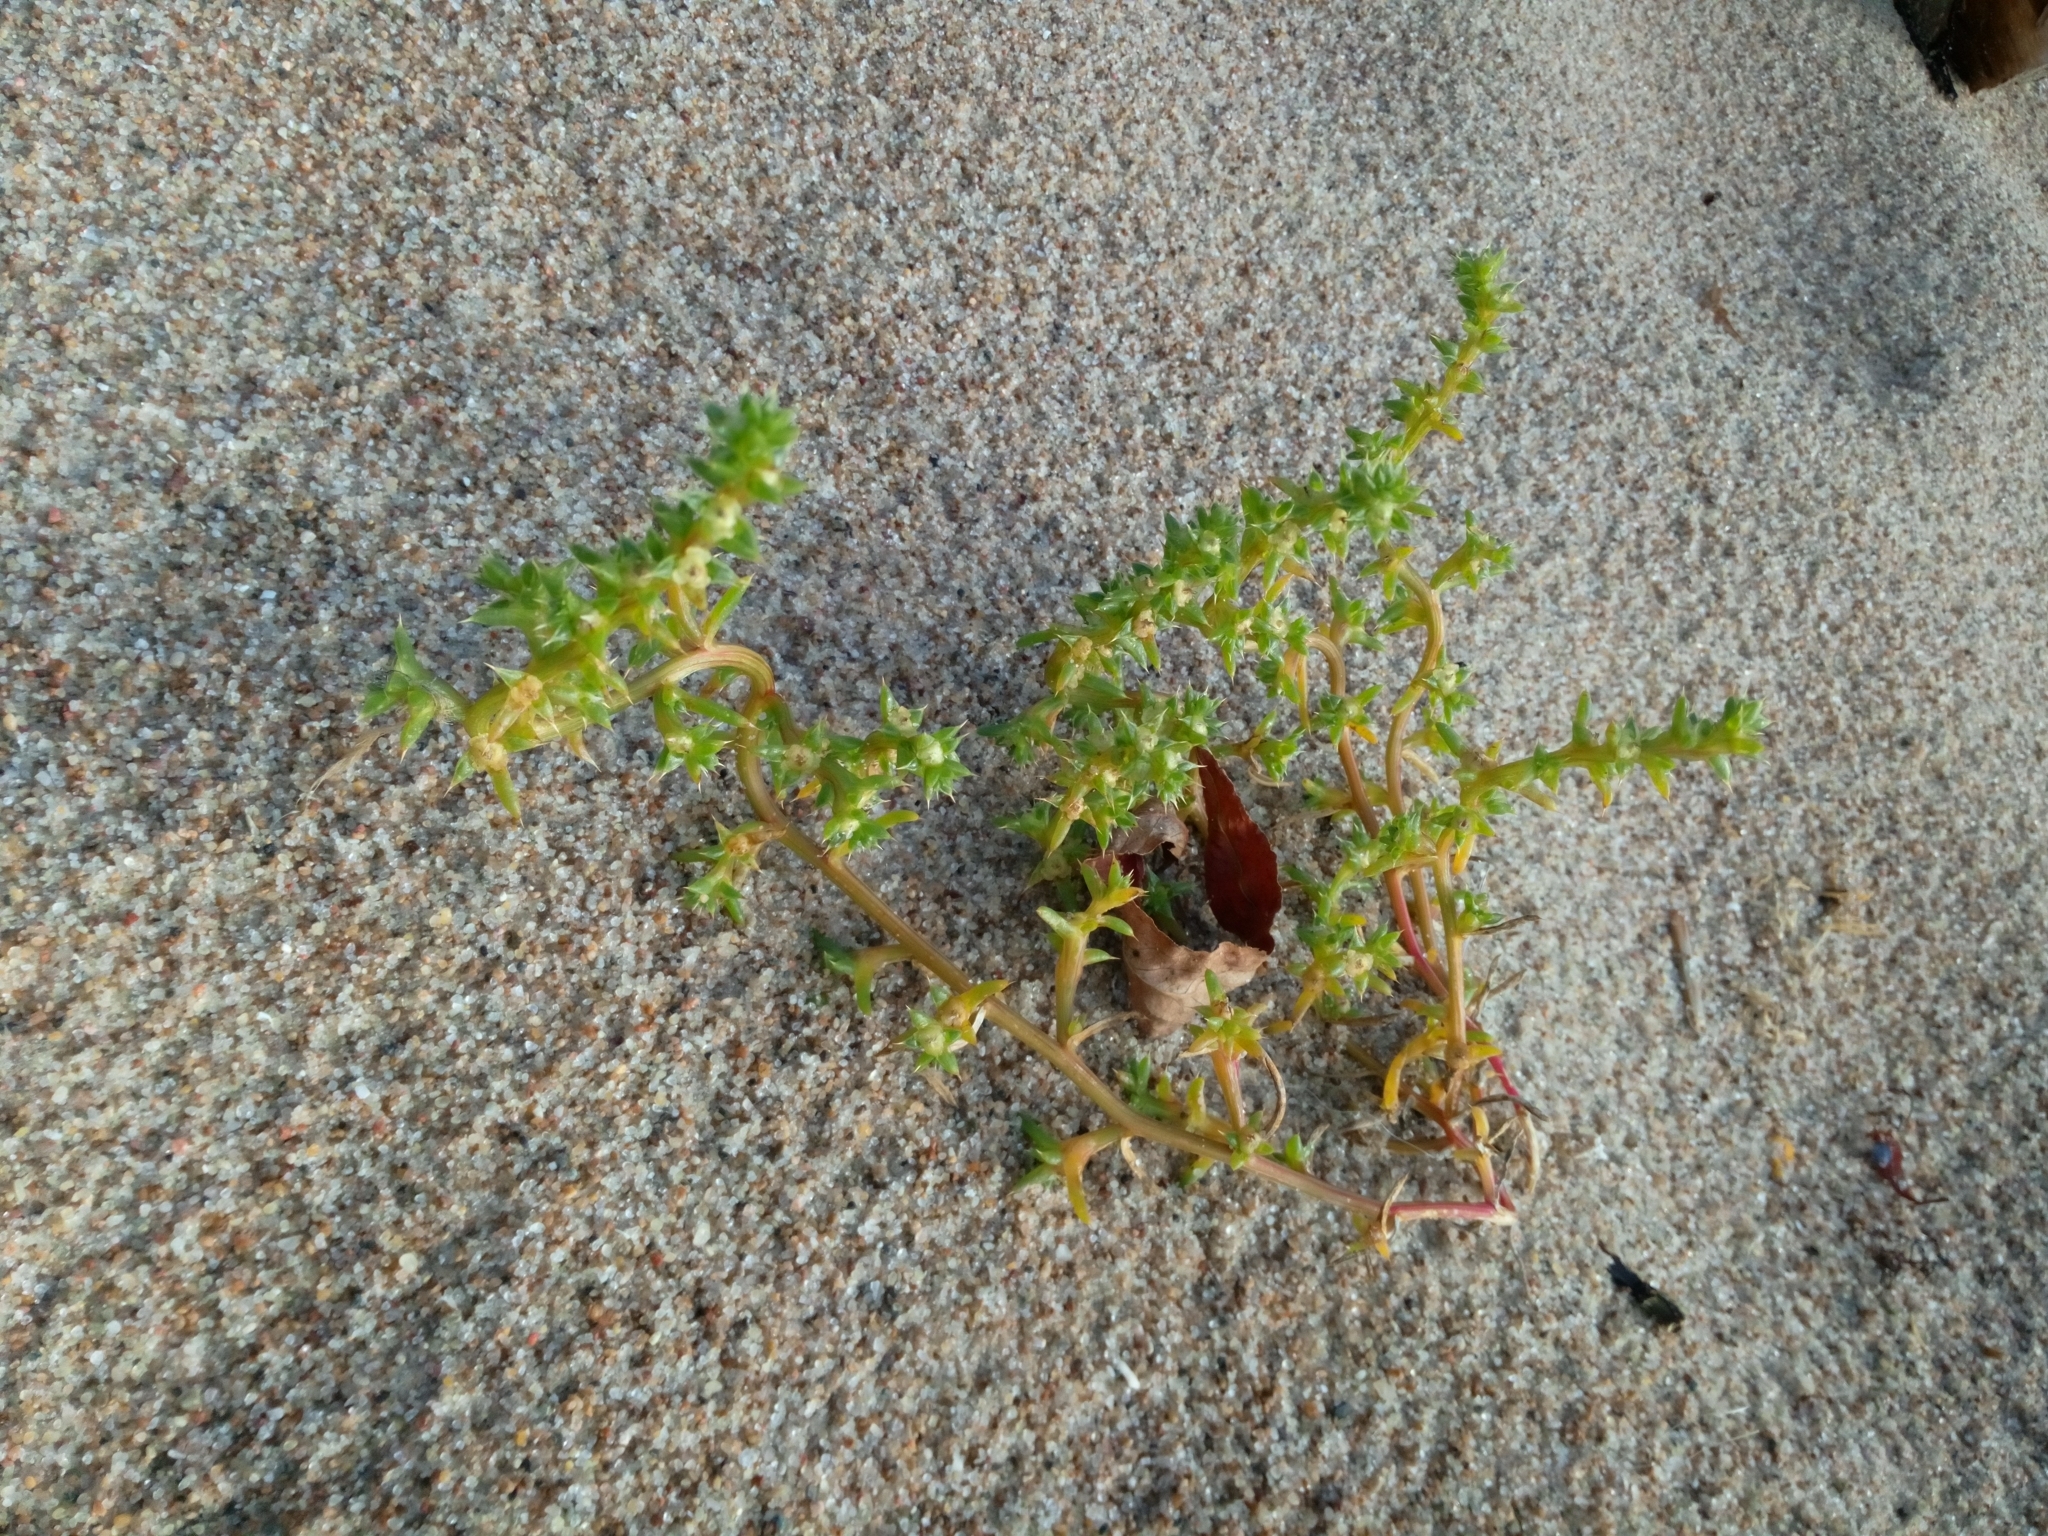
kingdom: Plantae
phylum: Tracheophyta
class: Magnoliopsida
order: Caryophyllales
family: Amaranthaceae
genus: Salsola
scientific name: Salsola kali
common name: Saltwort
